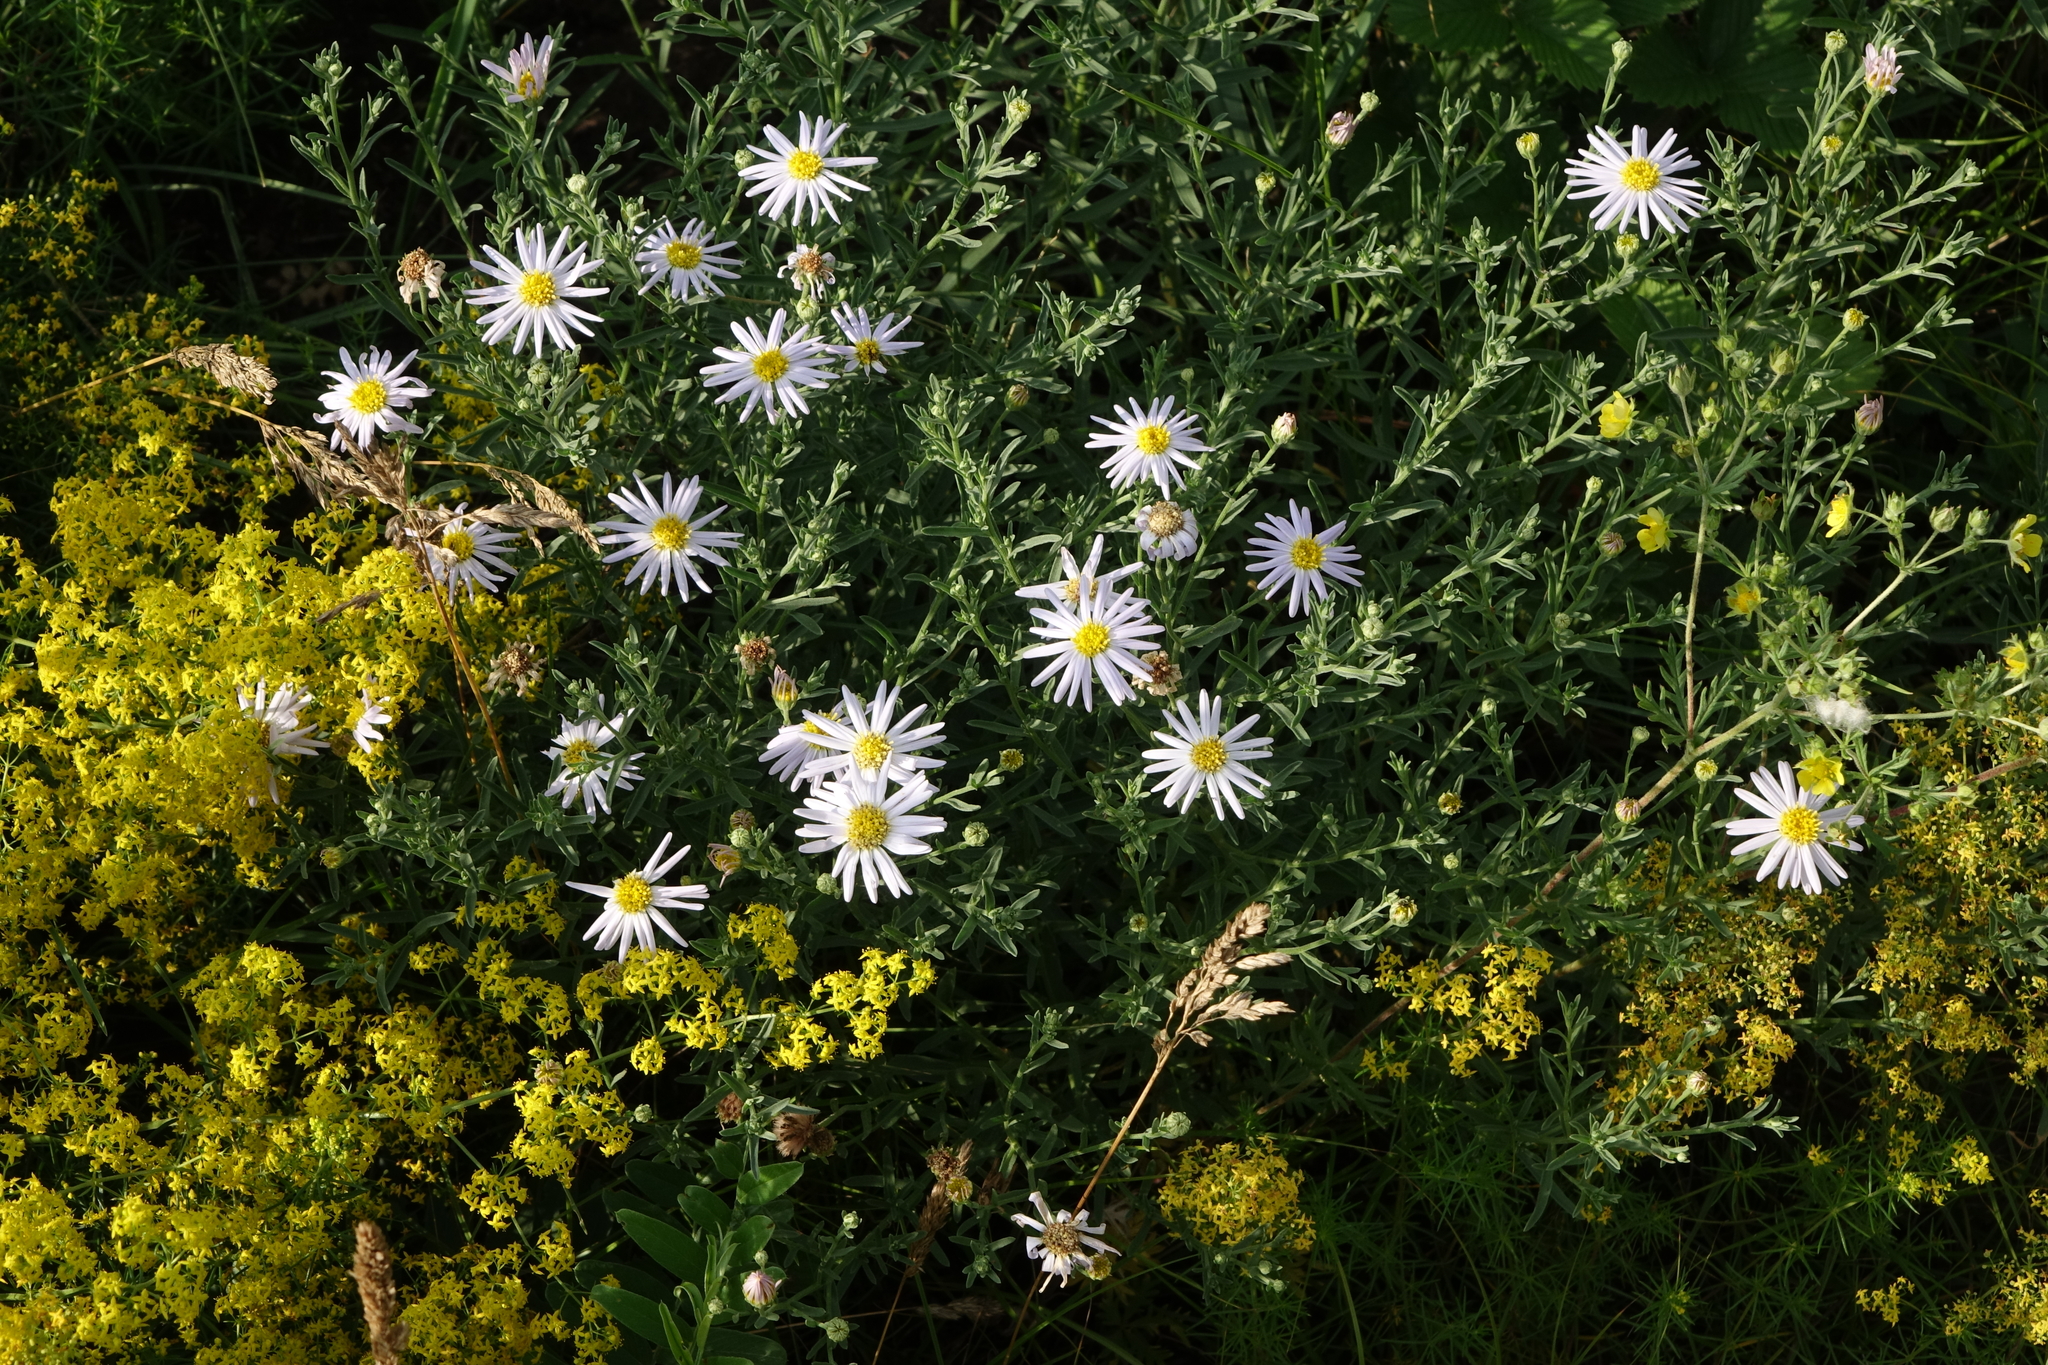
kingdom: Plantae
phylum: Tracheophyta
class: Magnoliopsida
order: Asterales
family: Asteraceae
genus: Heteropappus
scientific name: Heteropappus altaicus
